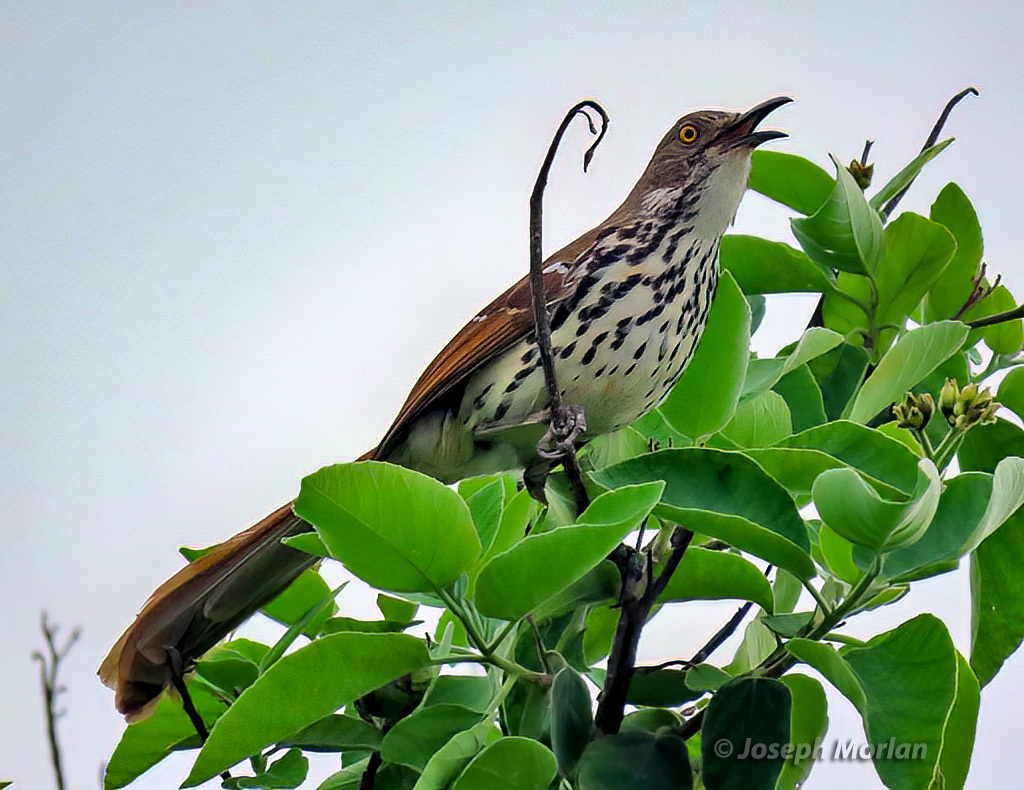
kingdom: Animalia
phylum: Chordata
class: Aves
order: Passeriformes
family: Mimidae
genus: Toxostoma
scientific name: Toxostoma longirostre
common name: Long-billed thrasher
